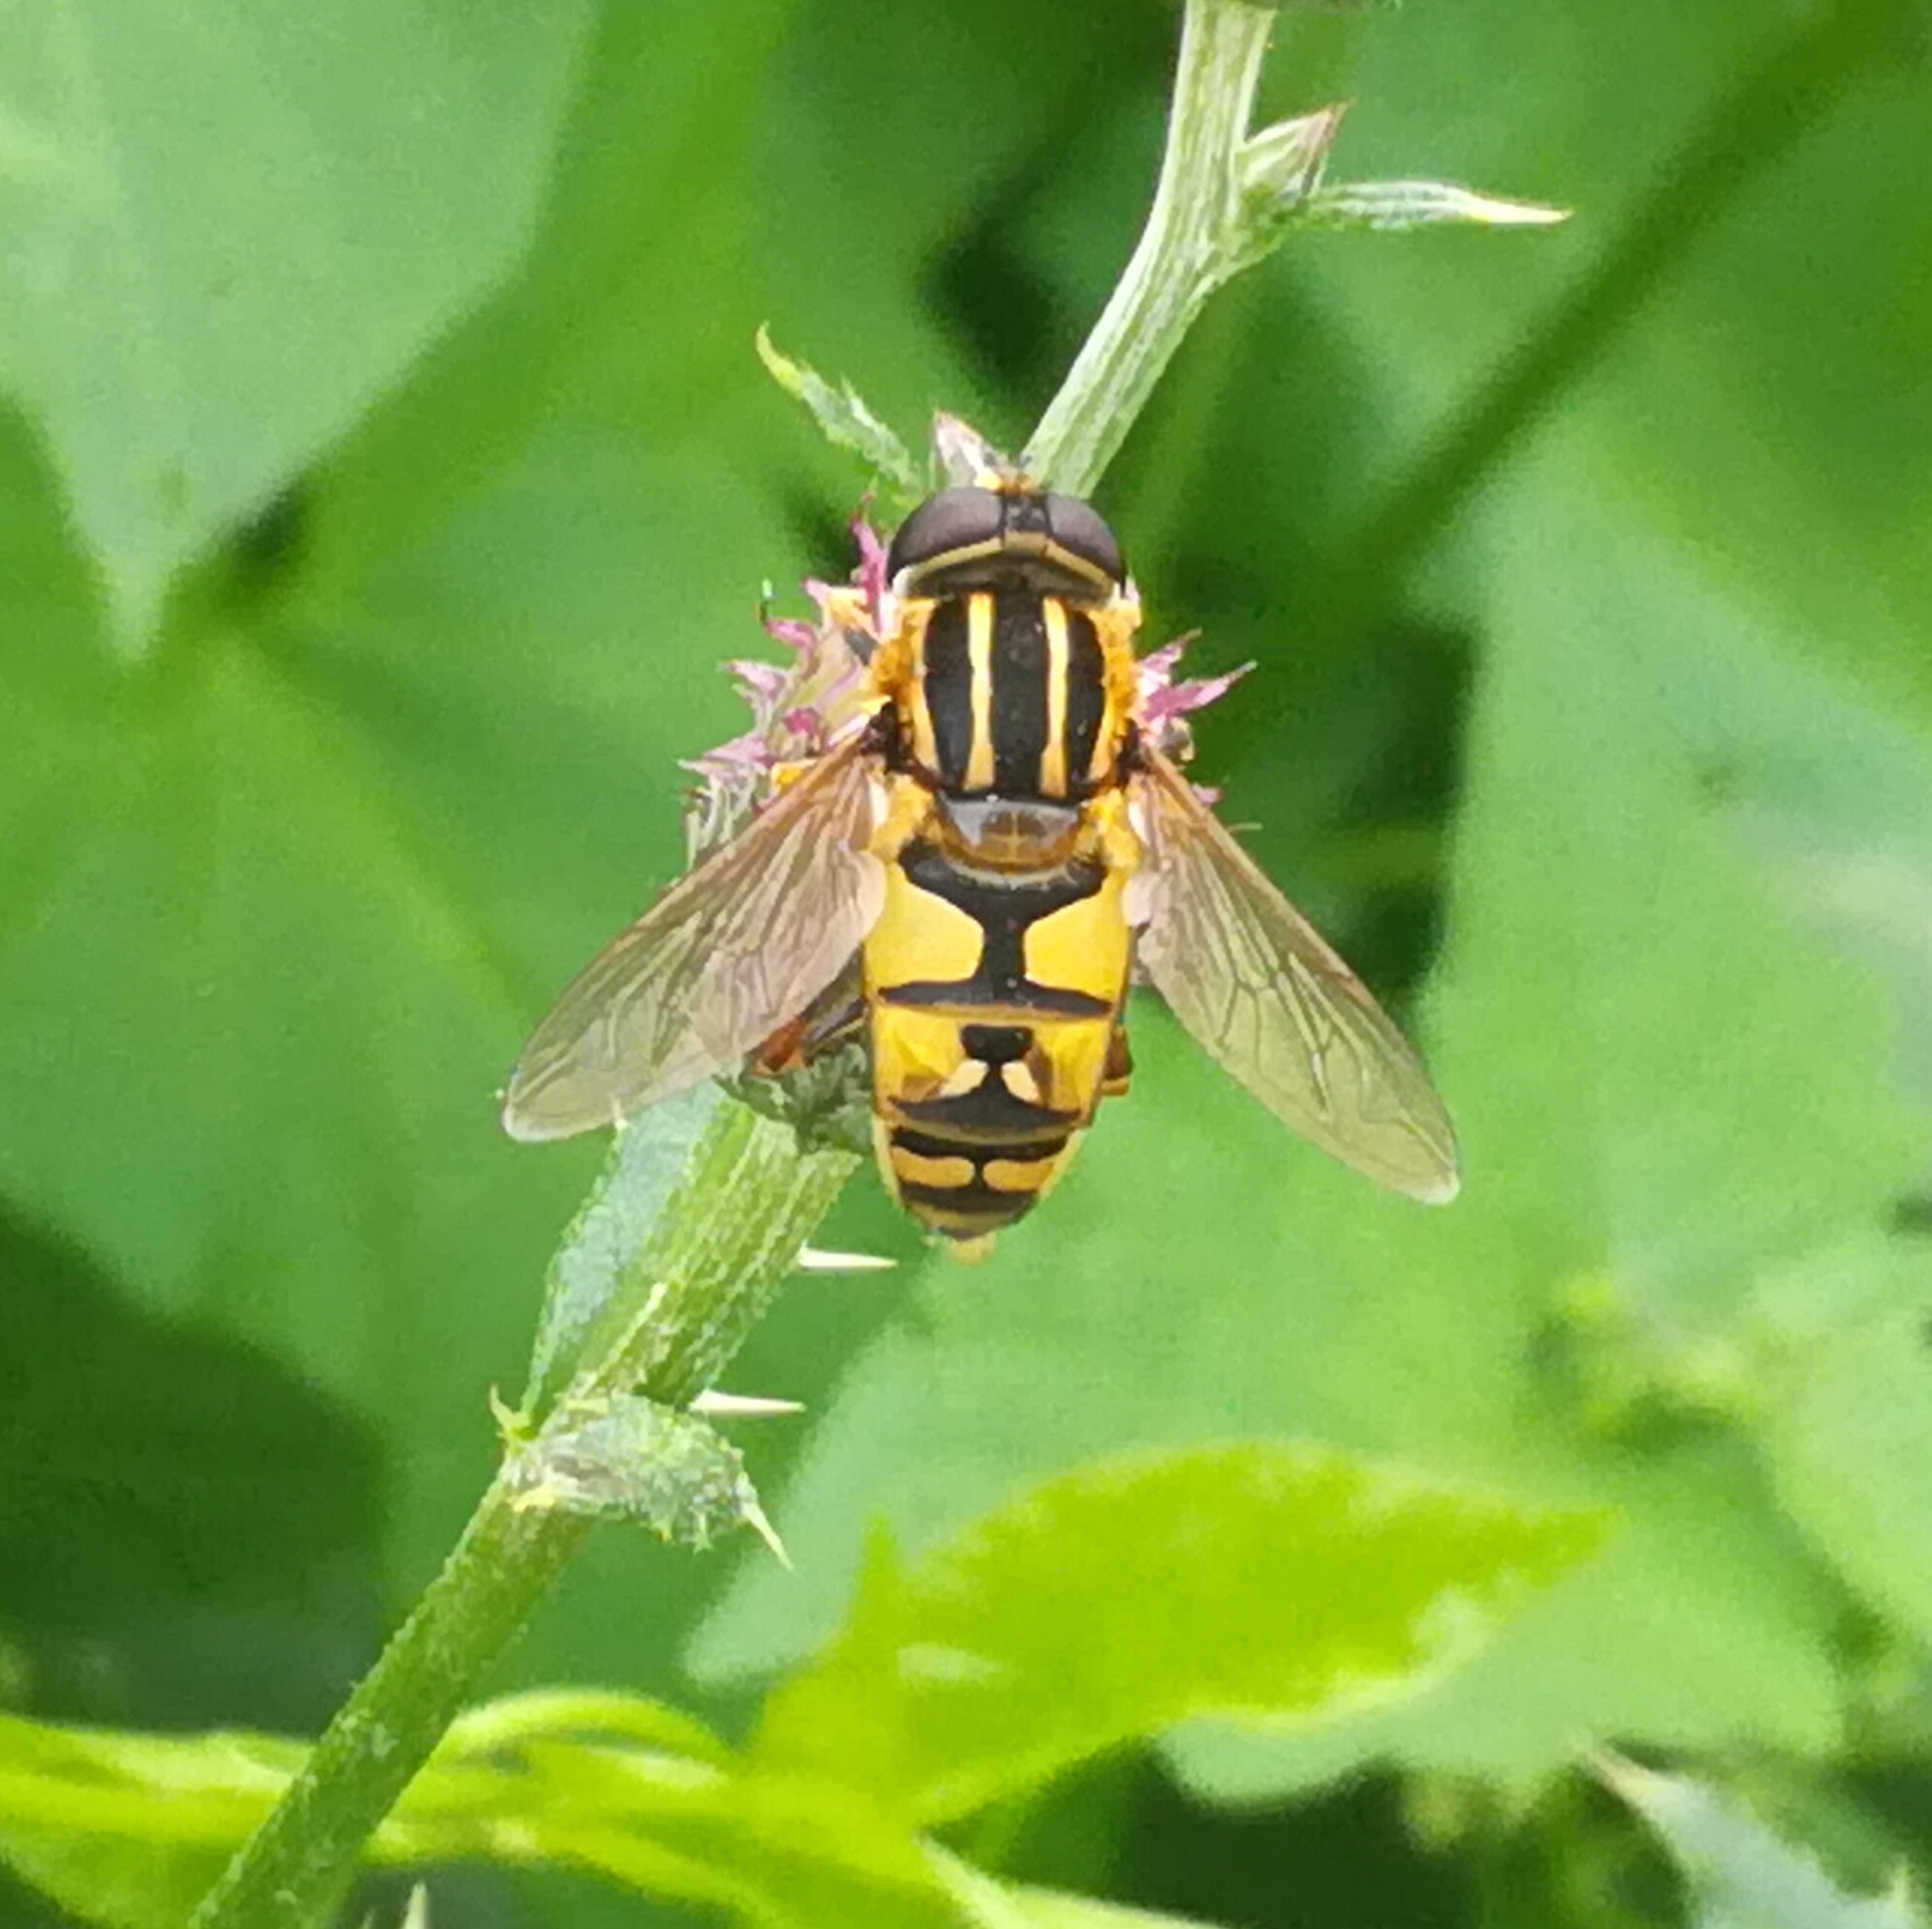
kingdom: Animalia
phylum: Arthropoda
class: Insecta
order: Diptera
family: Syrphidae
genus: Helophilus
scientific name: Helophilus pendulus
